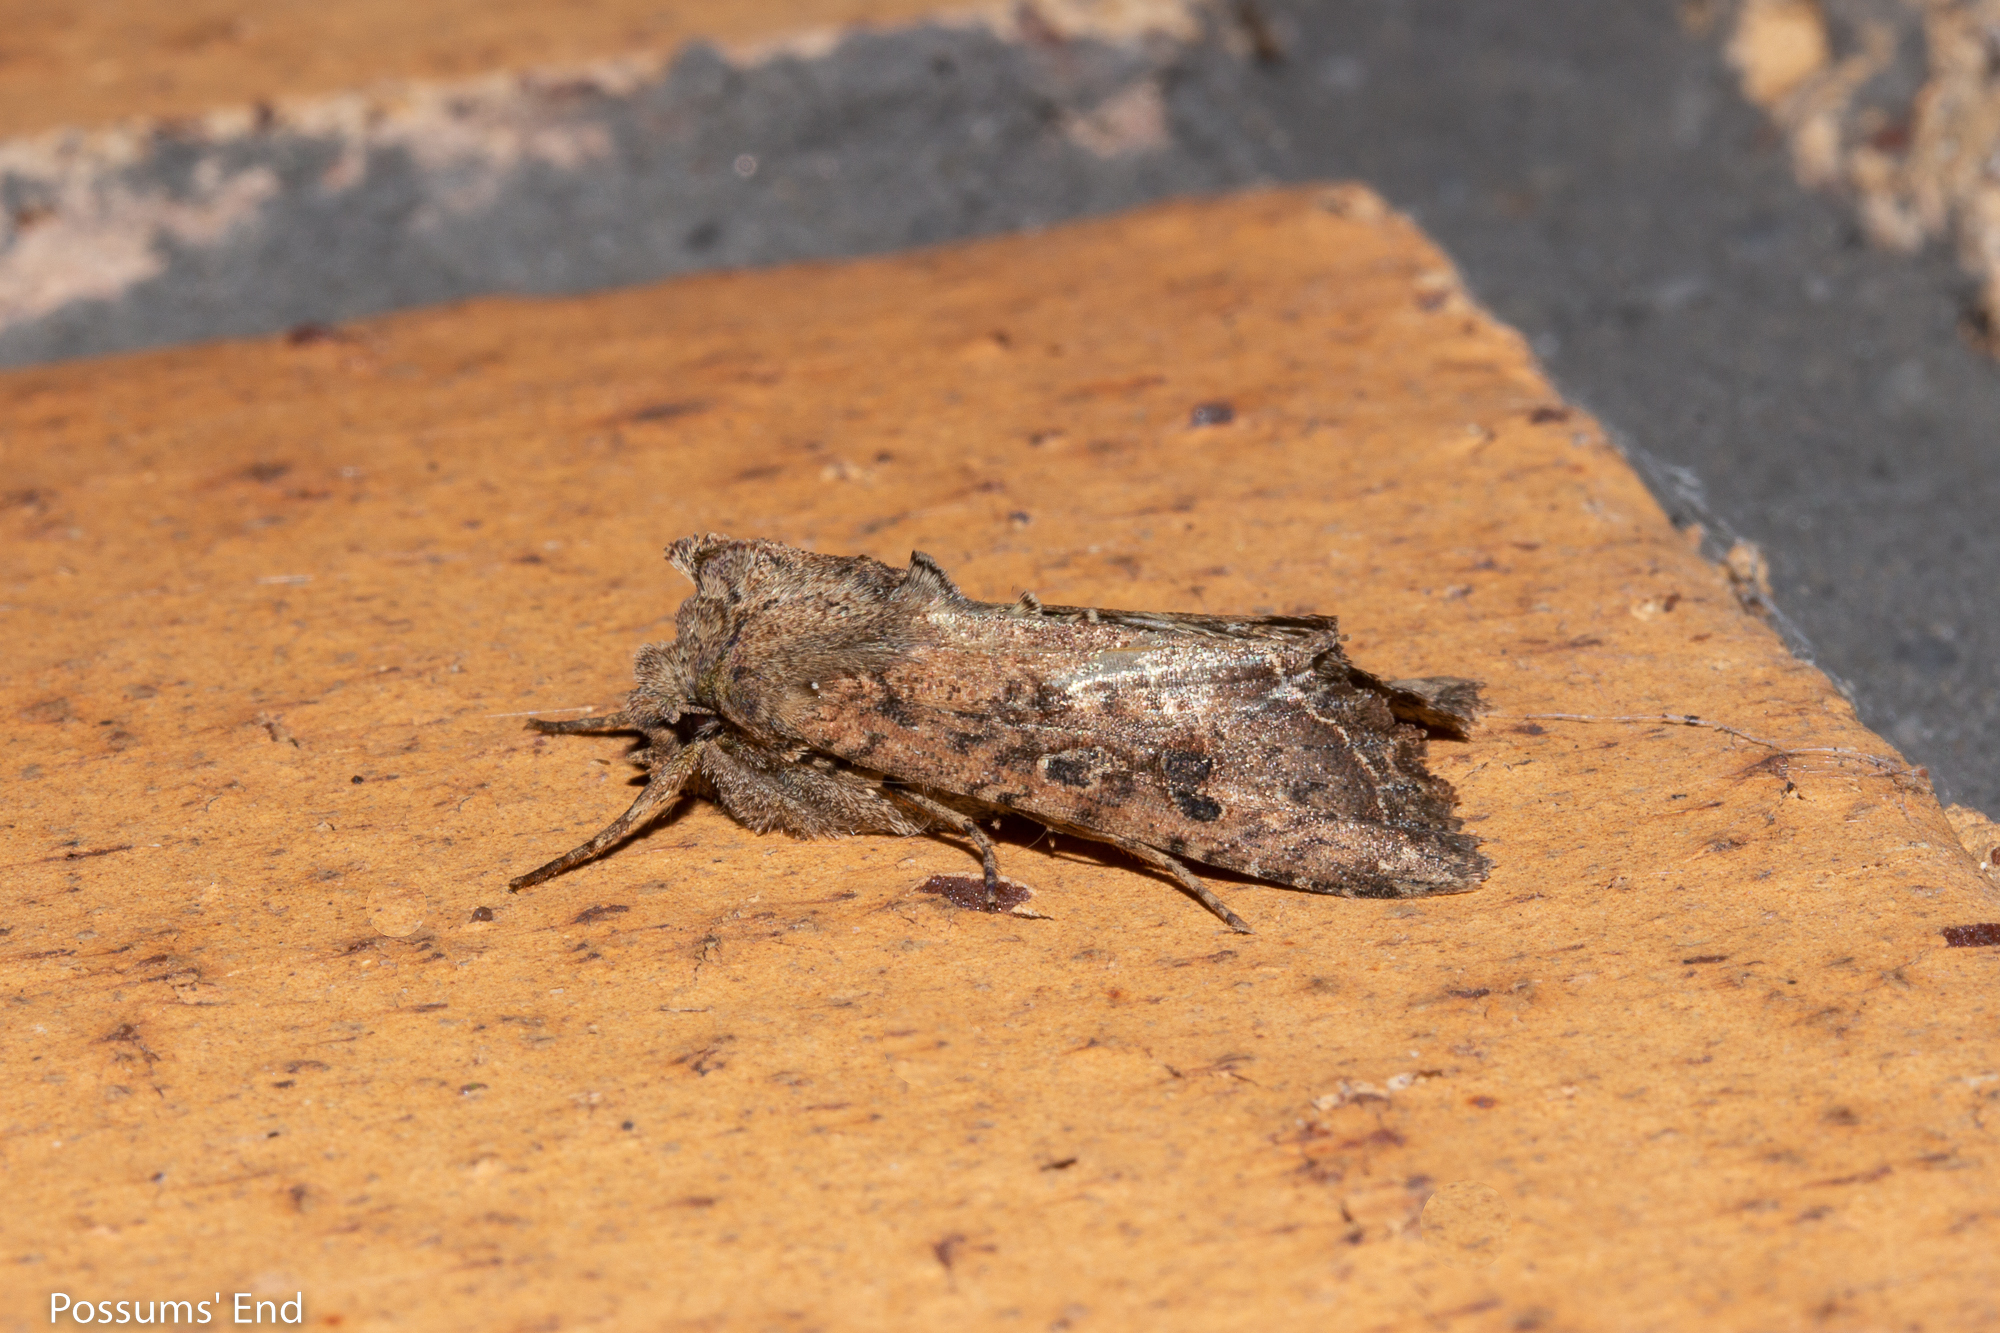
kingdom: Animalia
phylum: Arthropoda
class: Insecta
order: Lepidoptera
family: Noctuidae
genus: Meterana
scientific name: Meterana inchoata
